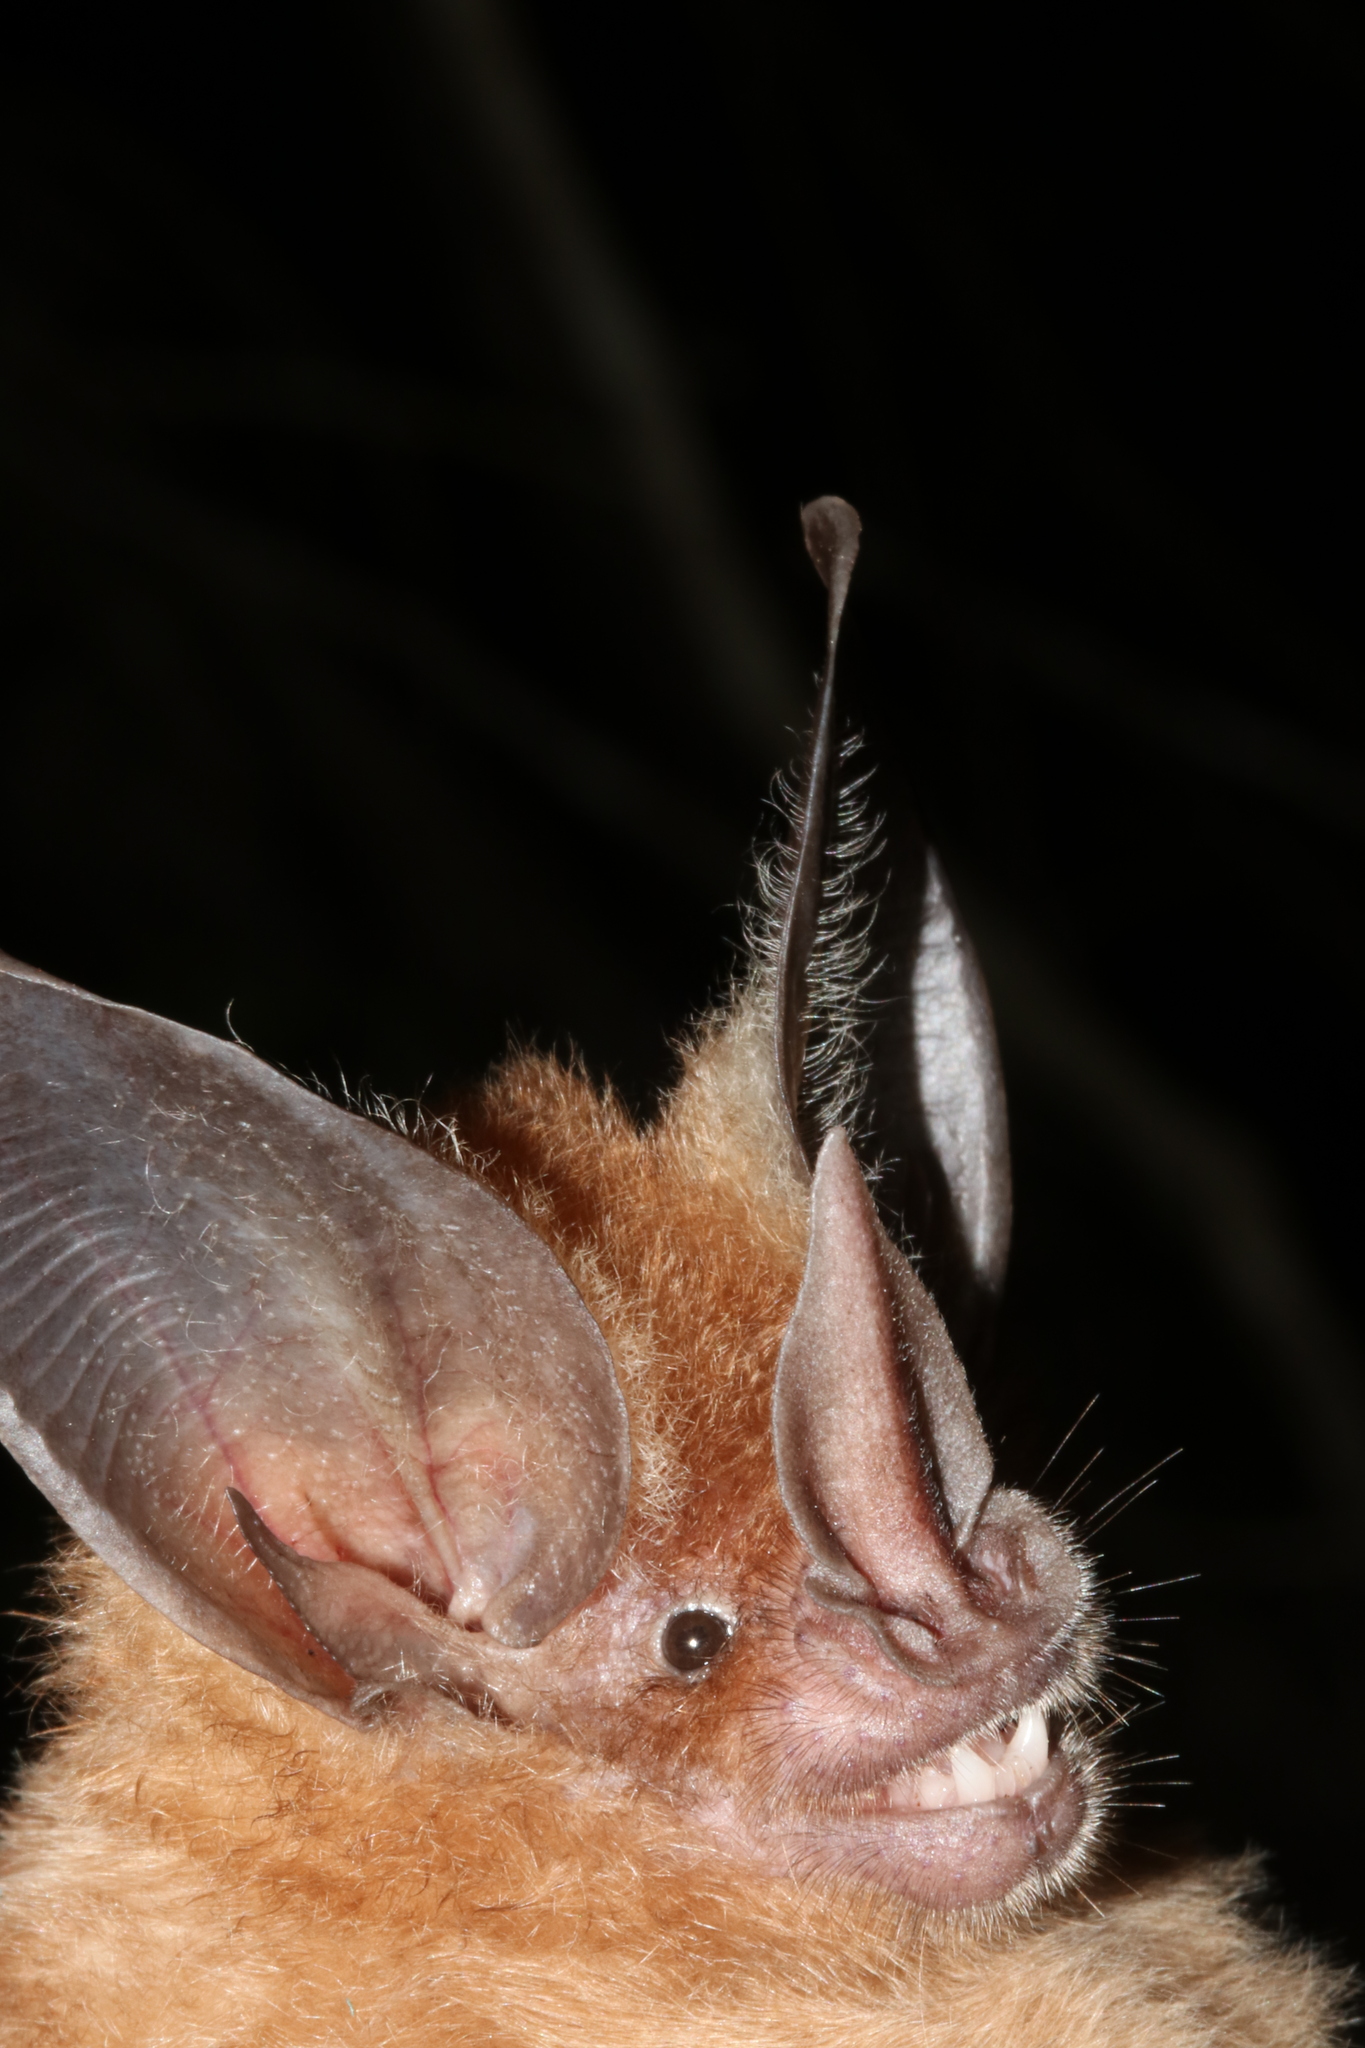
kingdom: Animalia
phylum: Chordata
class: Mammalia
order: Chiroptera
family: Phyllostomidae
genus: Mimon
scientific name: Mimon cozumelae
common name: Cozumelan golden bat
